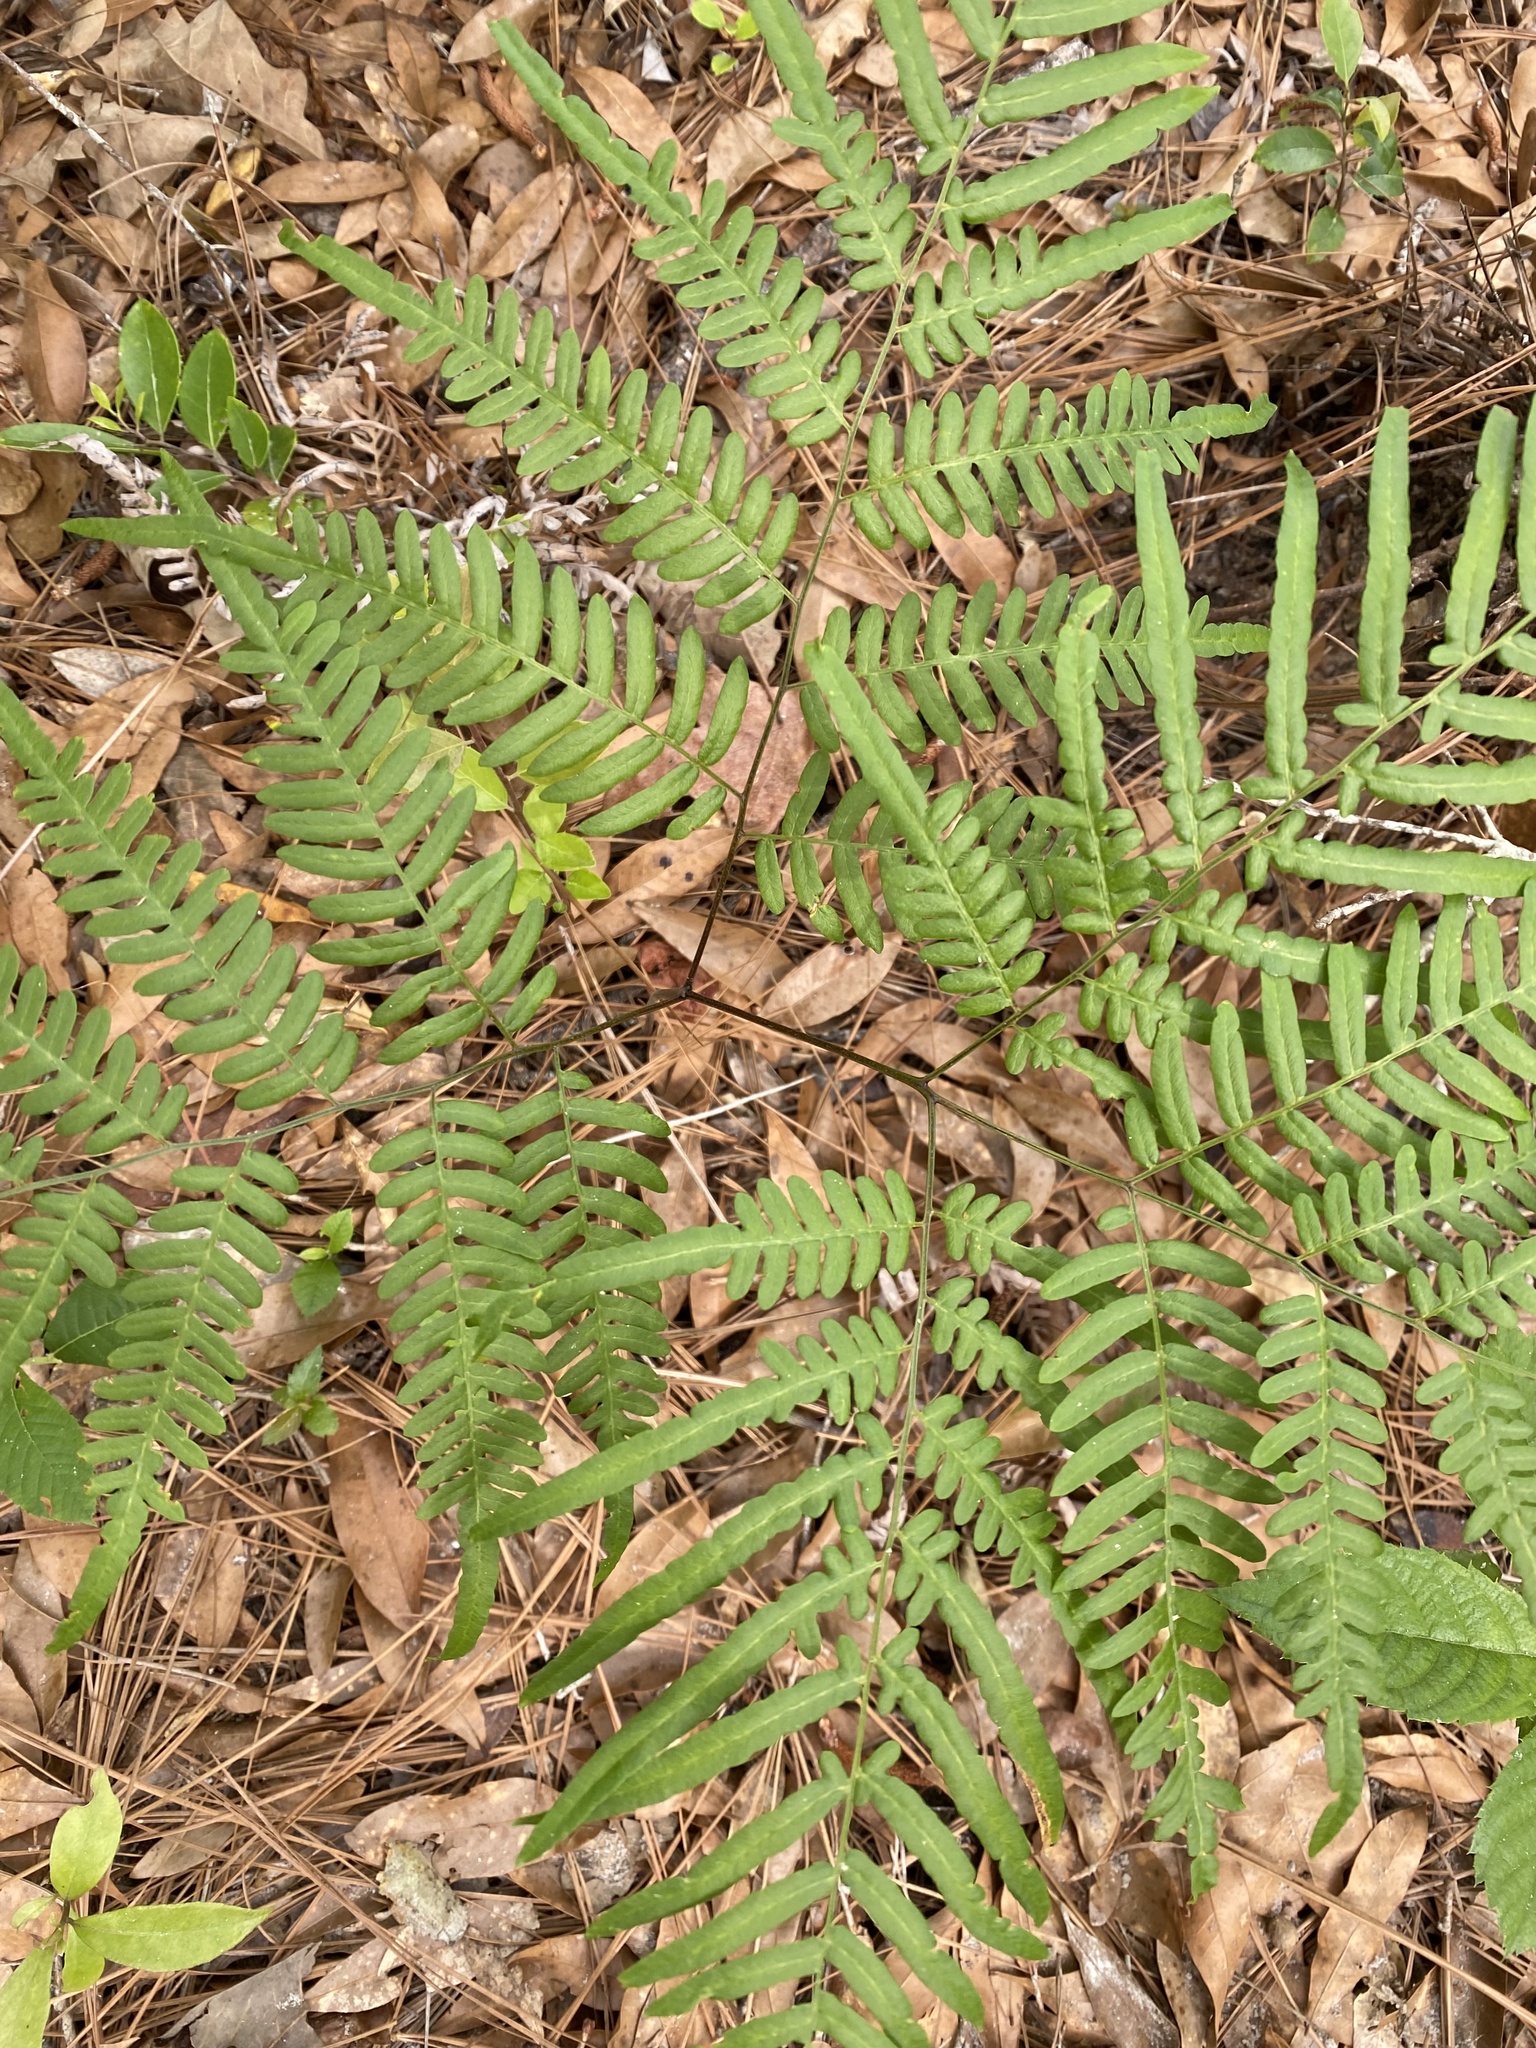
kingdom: Plantae
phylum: Tracheophyta
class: Polypodiopsida
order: Polypodiales
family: Dennstaedtiaceae
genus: Pteridium
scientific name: Pteridium
